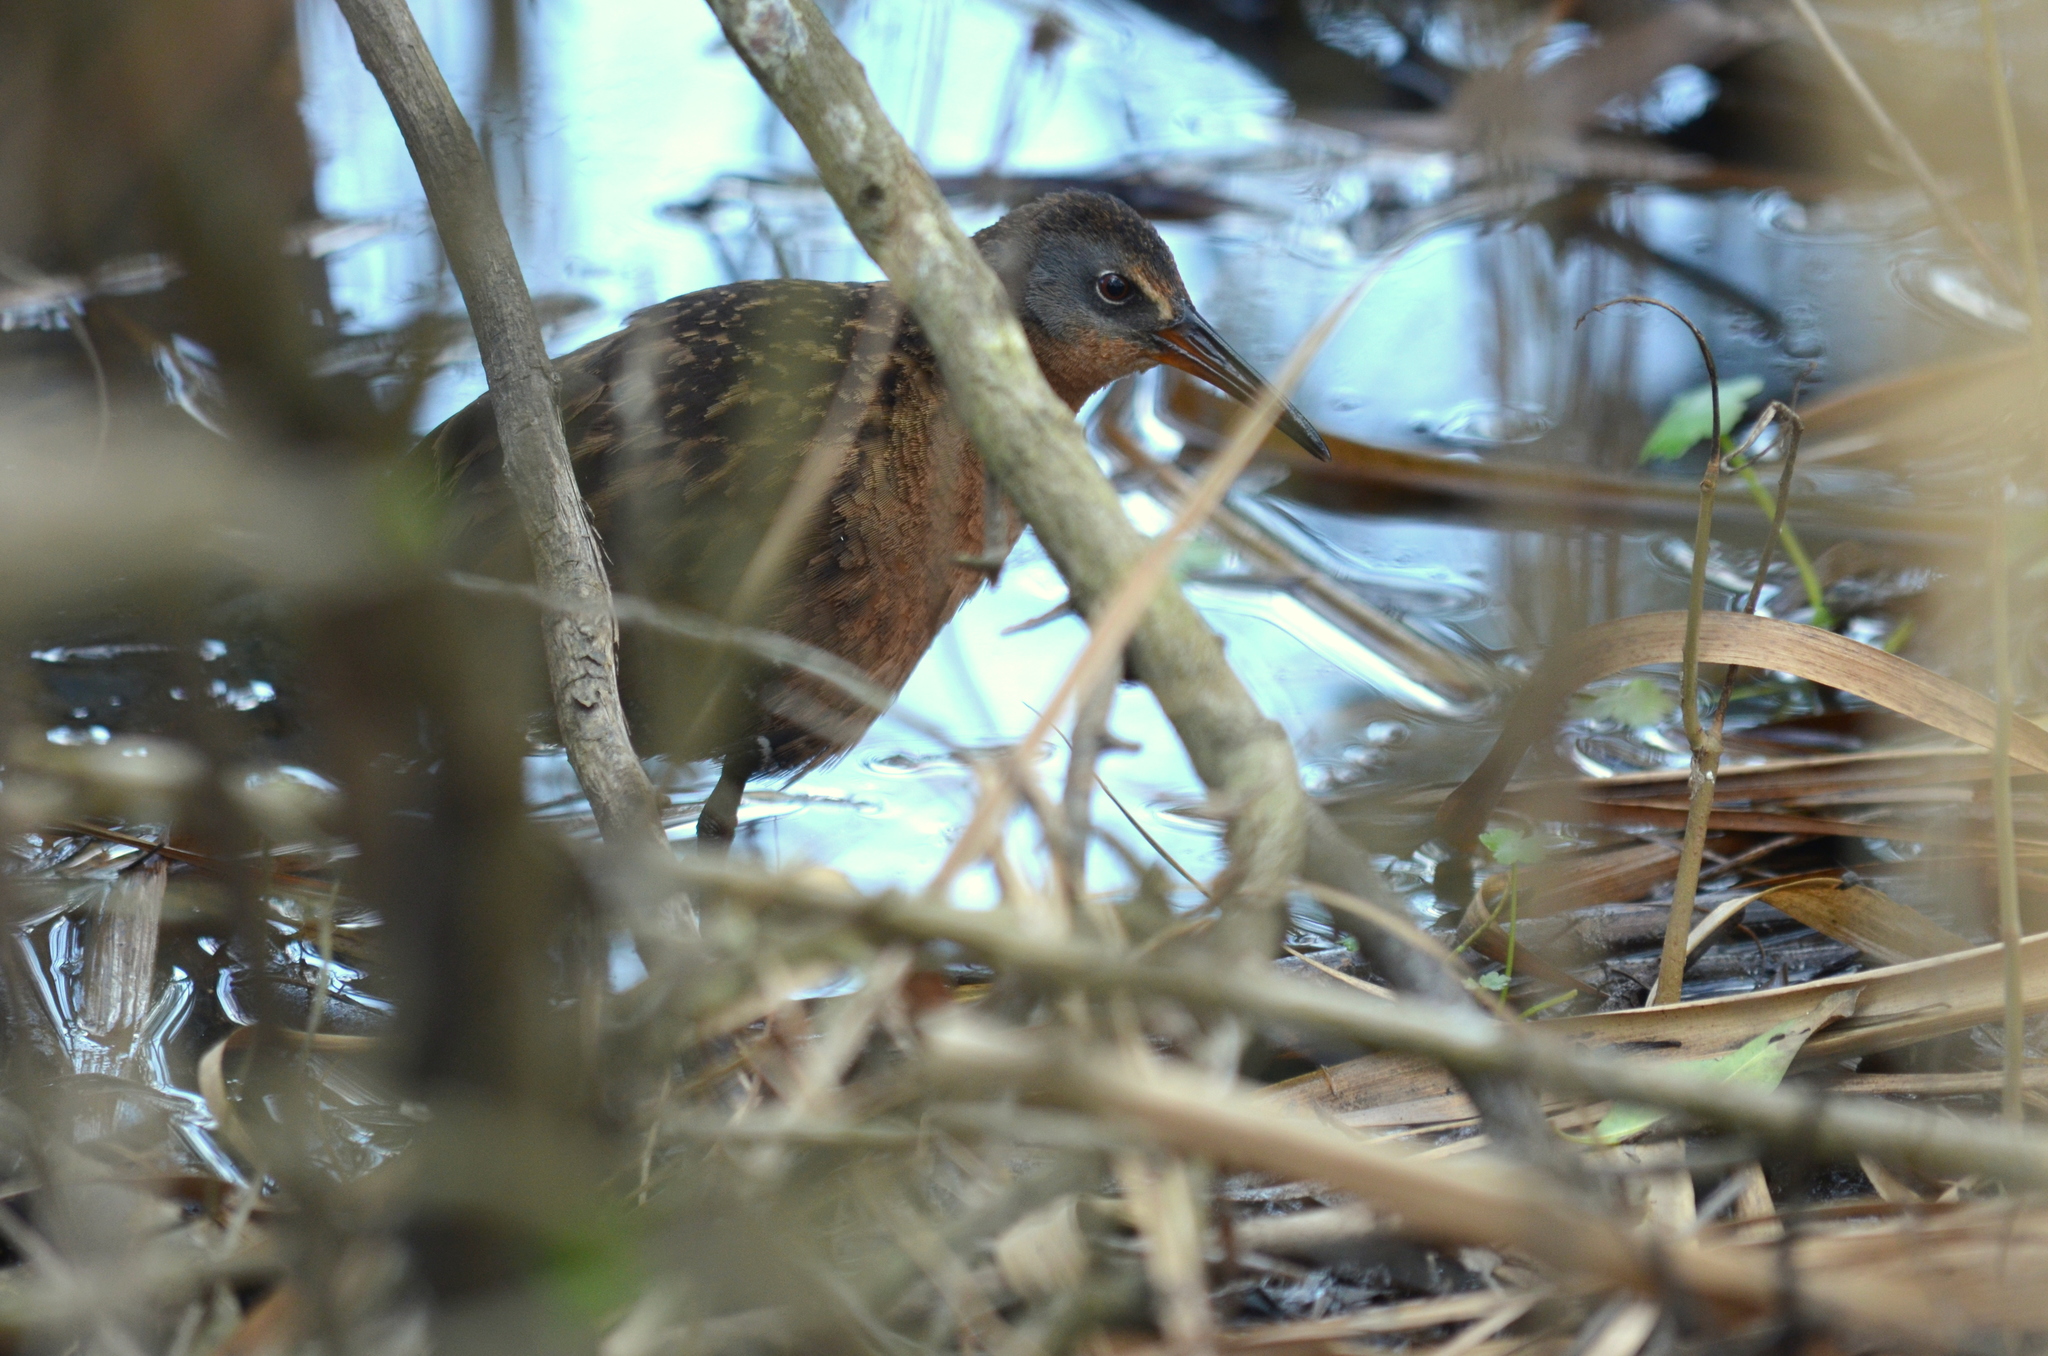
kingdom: Animalia
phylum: Chordata
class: Aves
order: Gruiformes
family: Rallidae
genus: Rallus
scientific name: Rallus limicola
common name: Virginia rail
